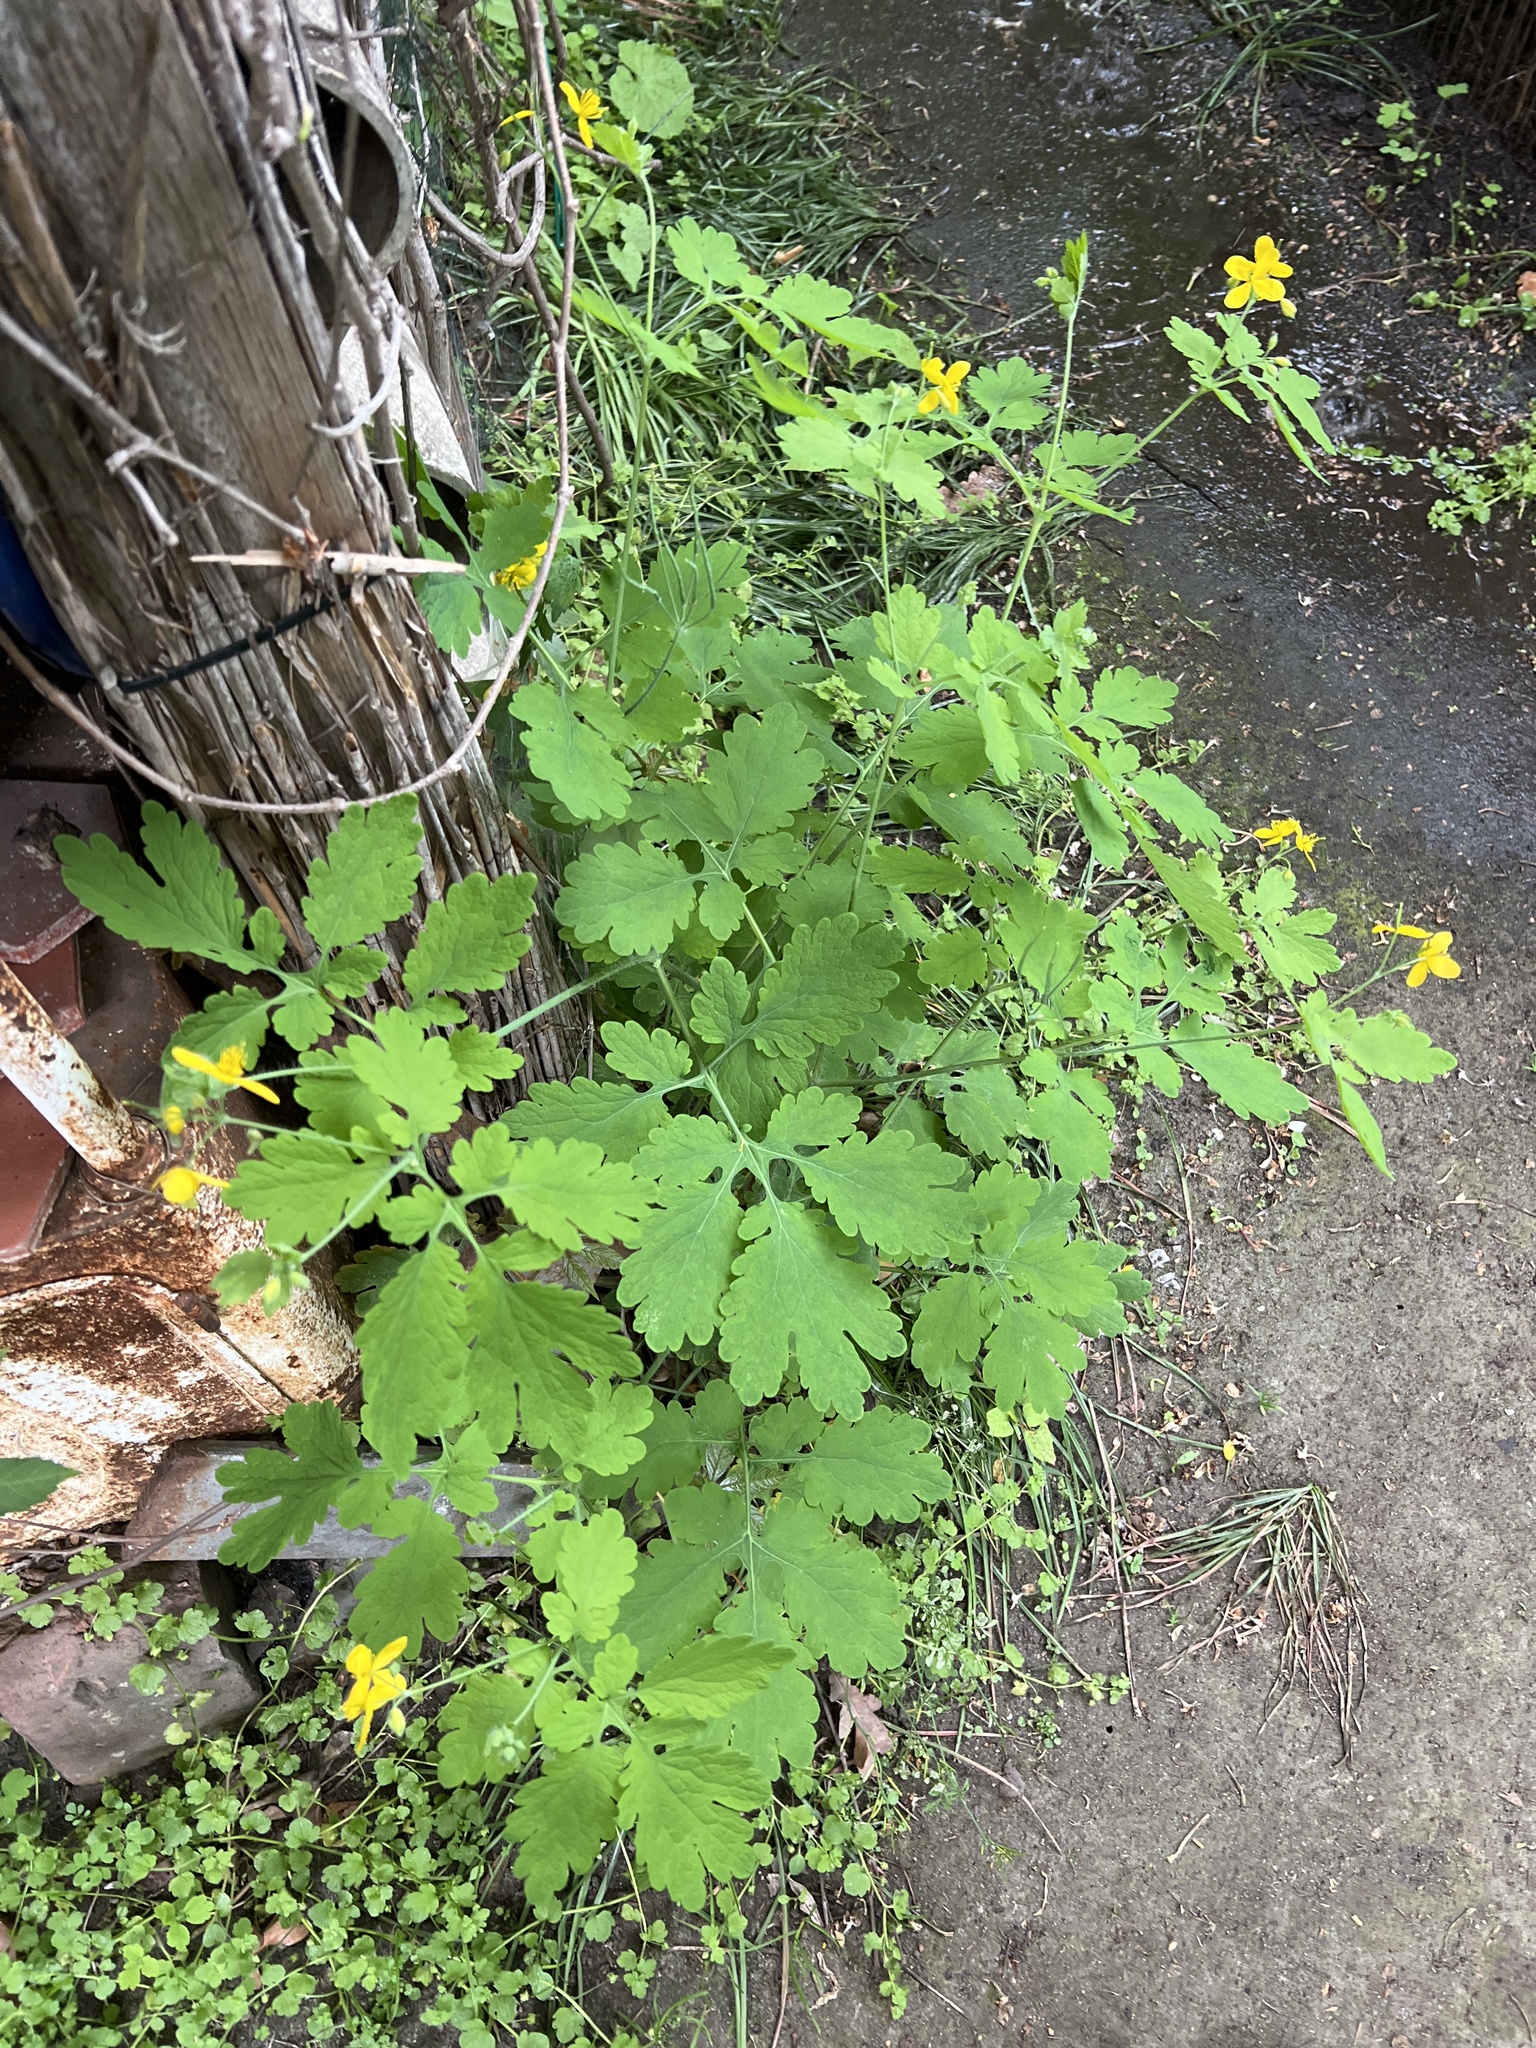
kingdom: Plantae
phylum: Tracheophyta
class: Magnoliopsida
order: Ranunculales
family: Papaveraceae
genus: Chelidonium
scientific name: Chelidonium majus
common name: Greater celandine
